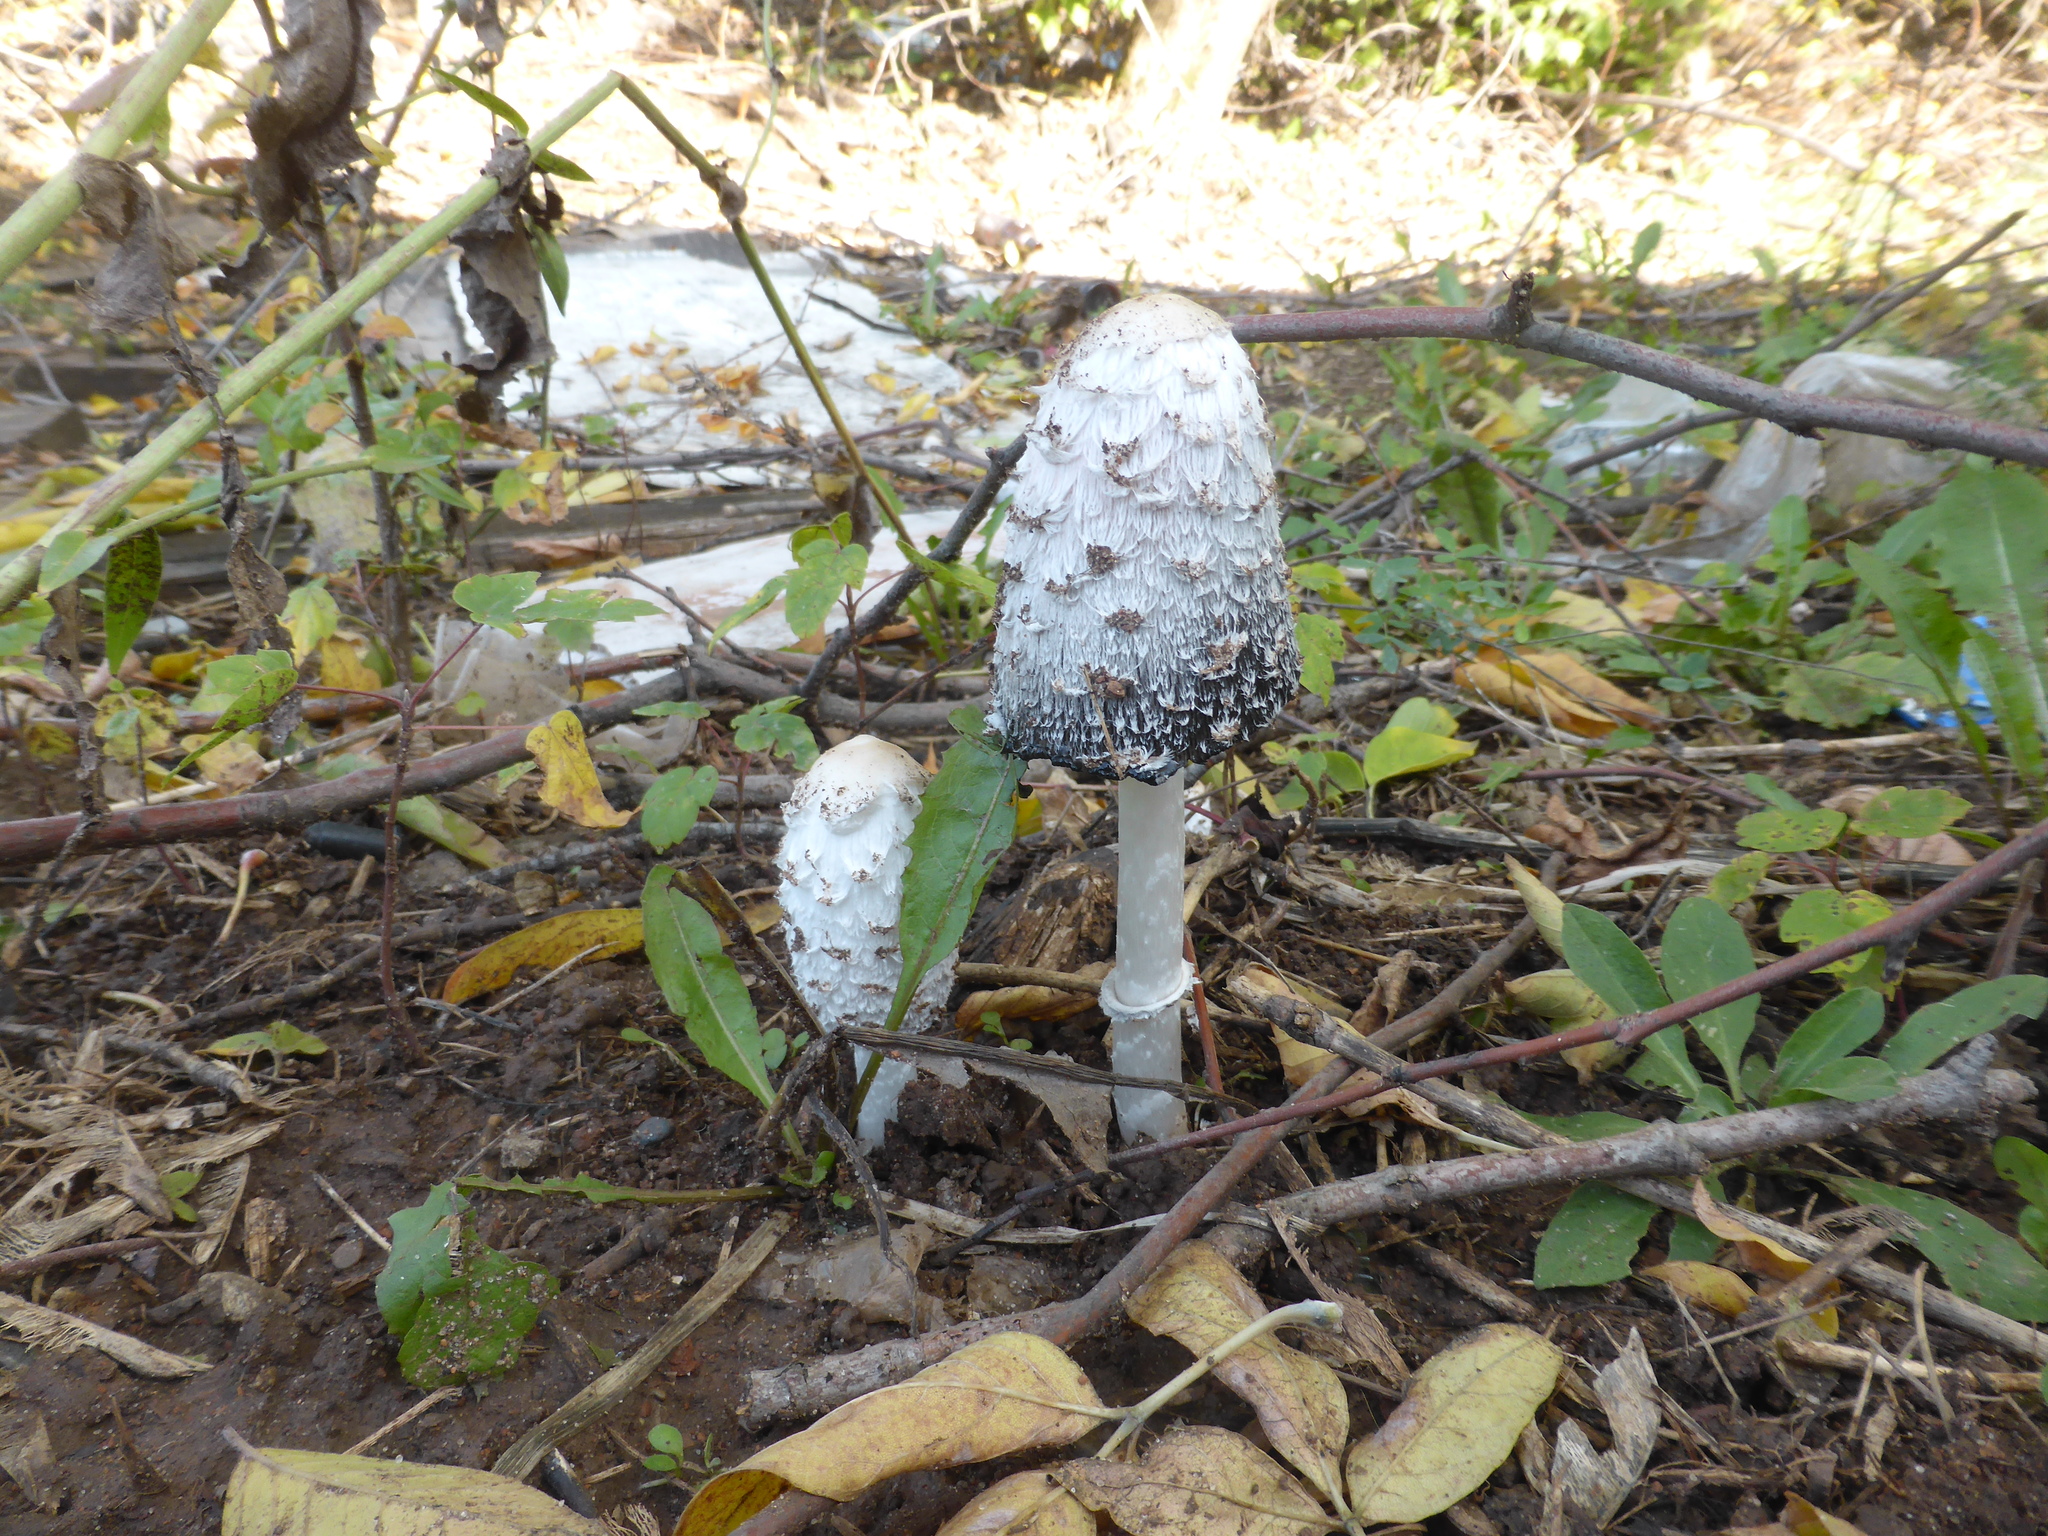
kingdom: Fungi
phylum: Basidiomycota
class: Agaricomycetes
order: Agaricales
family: Agaricaceae
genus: Coprinus
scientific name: Coprinus comatus
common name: Lawyer's wig
